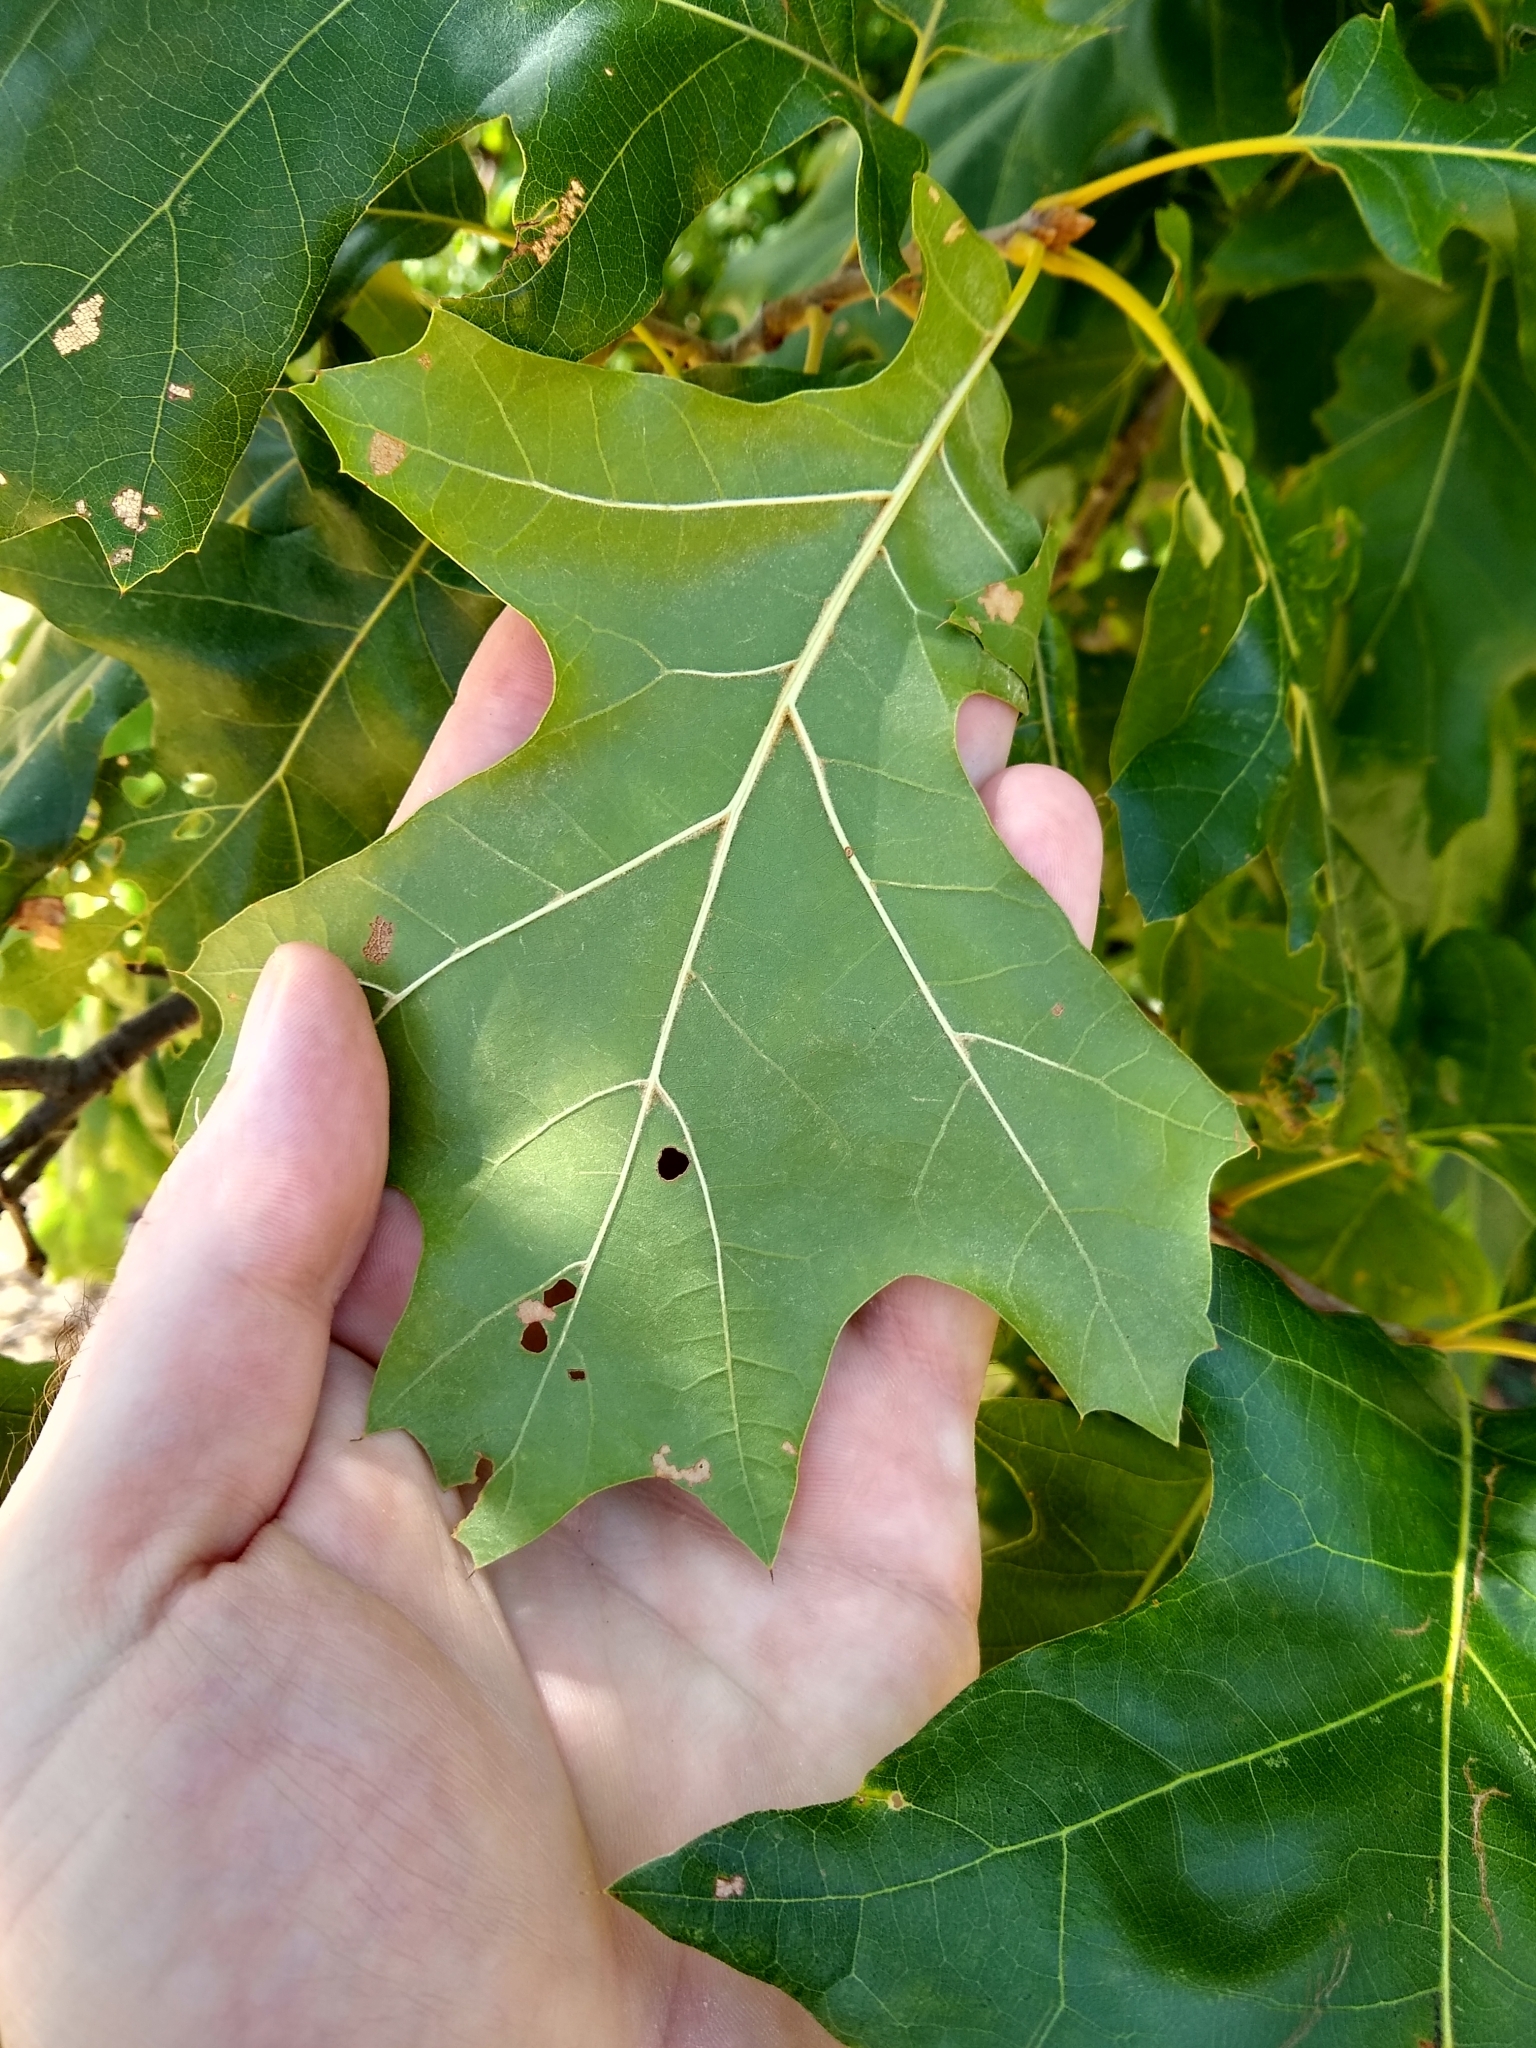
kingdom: Plantae
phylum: Tracheophyta
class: Magnoliopsida
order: Fagales
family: Fagaceae
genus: Quercus
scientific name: Quercus velutina
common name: Black oak
